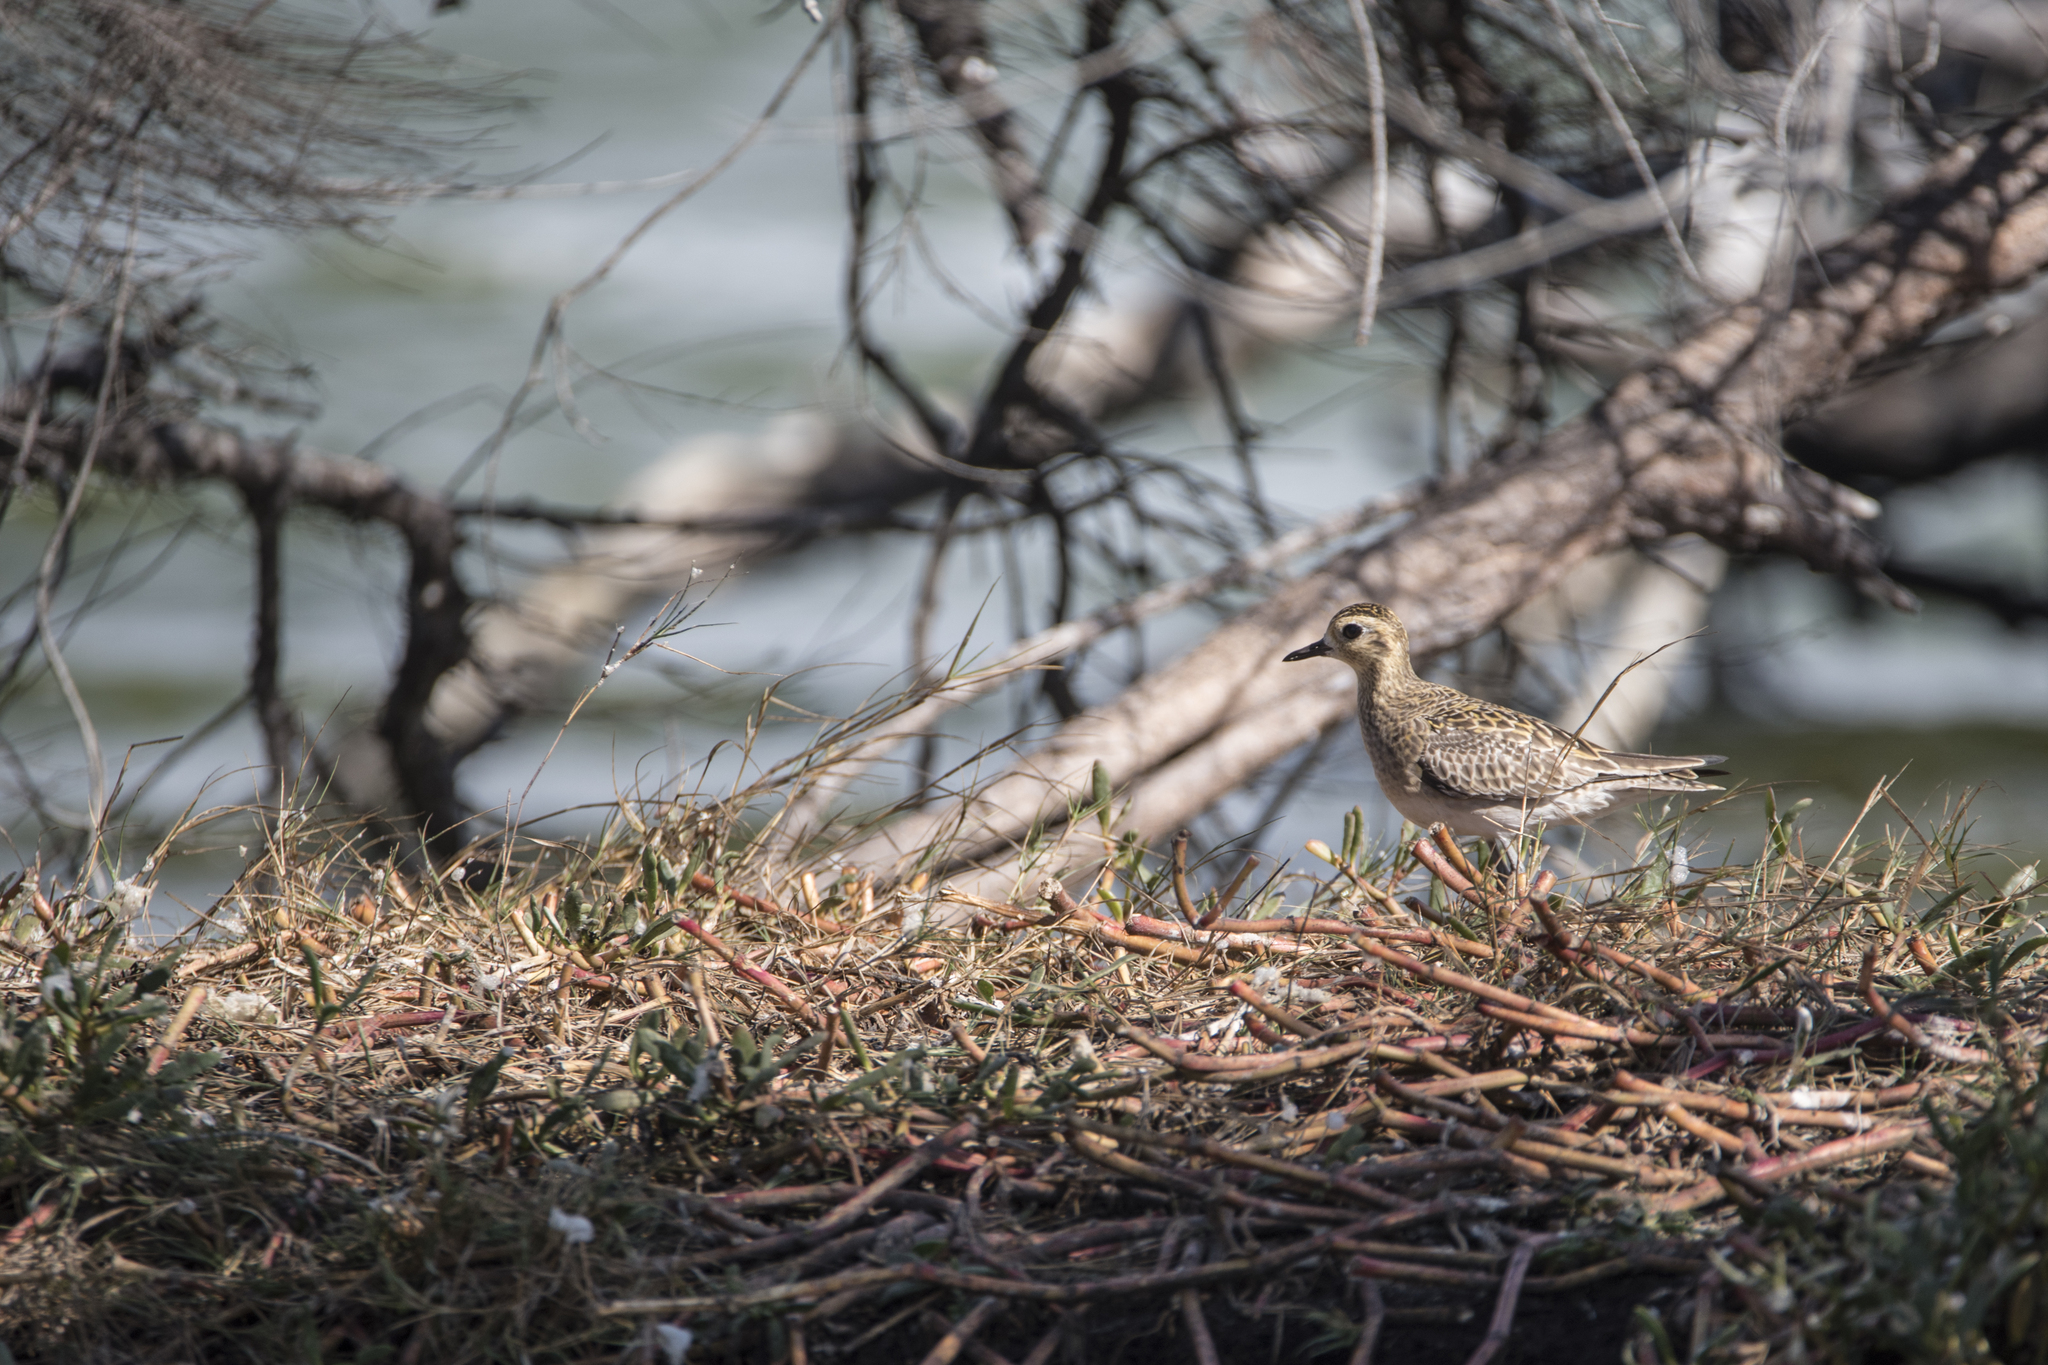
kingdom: Animalia
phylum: Chordata
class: Aves
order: Charadriiformes
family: Charadriidae
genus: Pluvialis
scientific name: Pluvialis fulva
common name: Pacific golden plover
